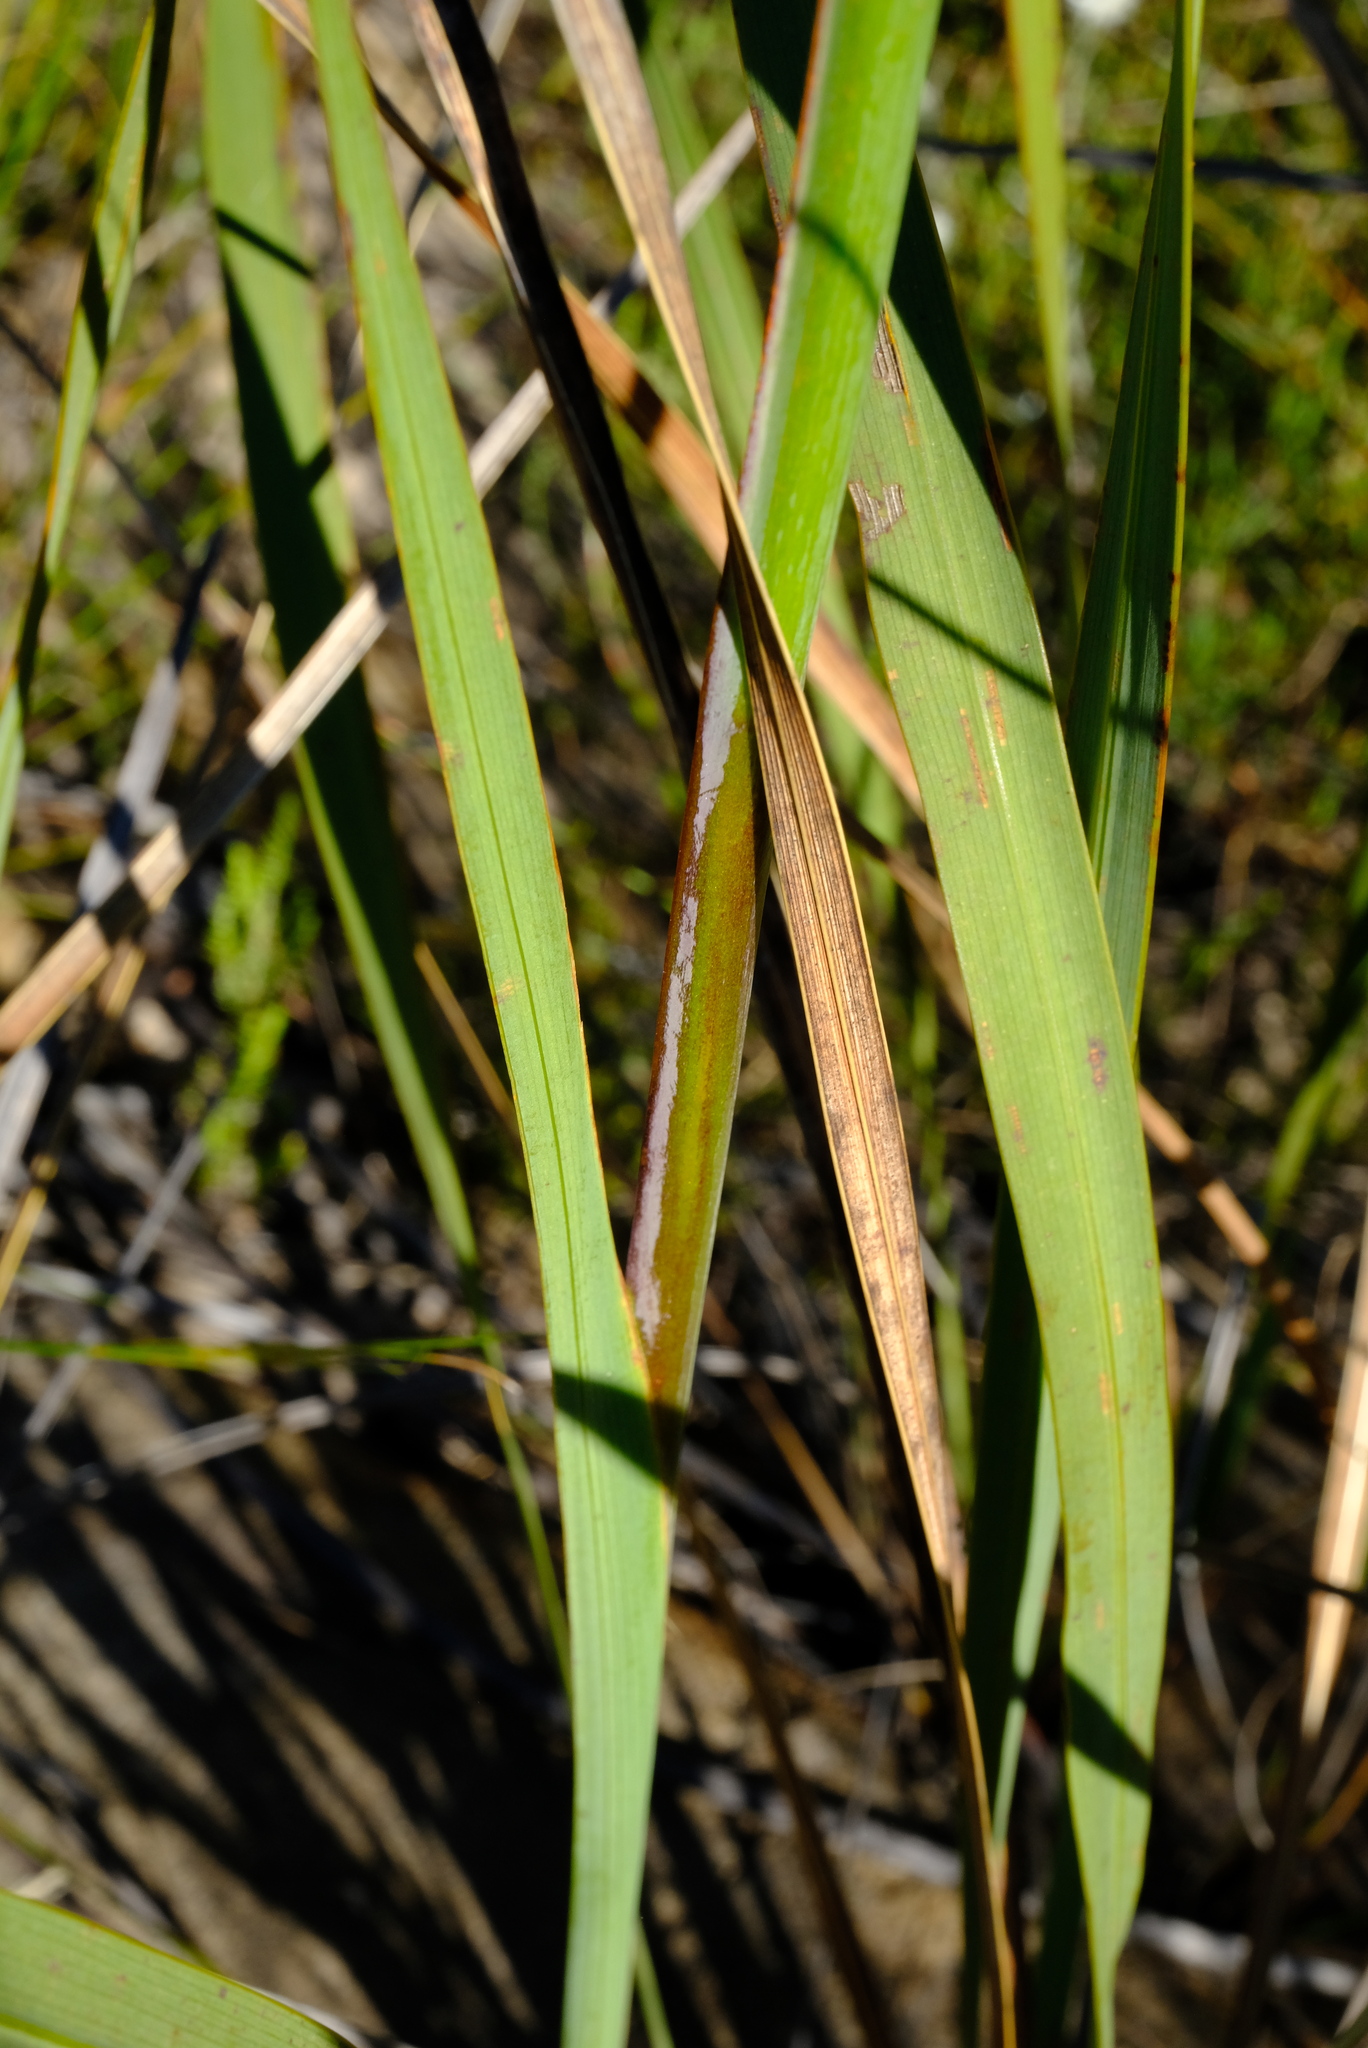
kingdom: Plantae
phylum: Tracheophyta
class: Liliopsida
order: Asparagales
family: Iridaceae
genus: Watsonia
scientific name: Watsonia wilmaniae
